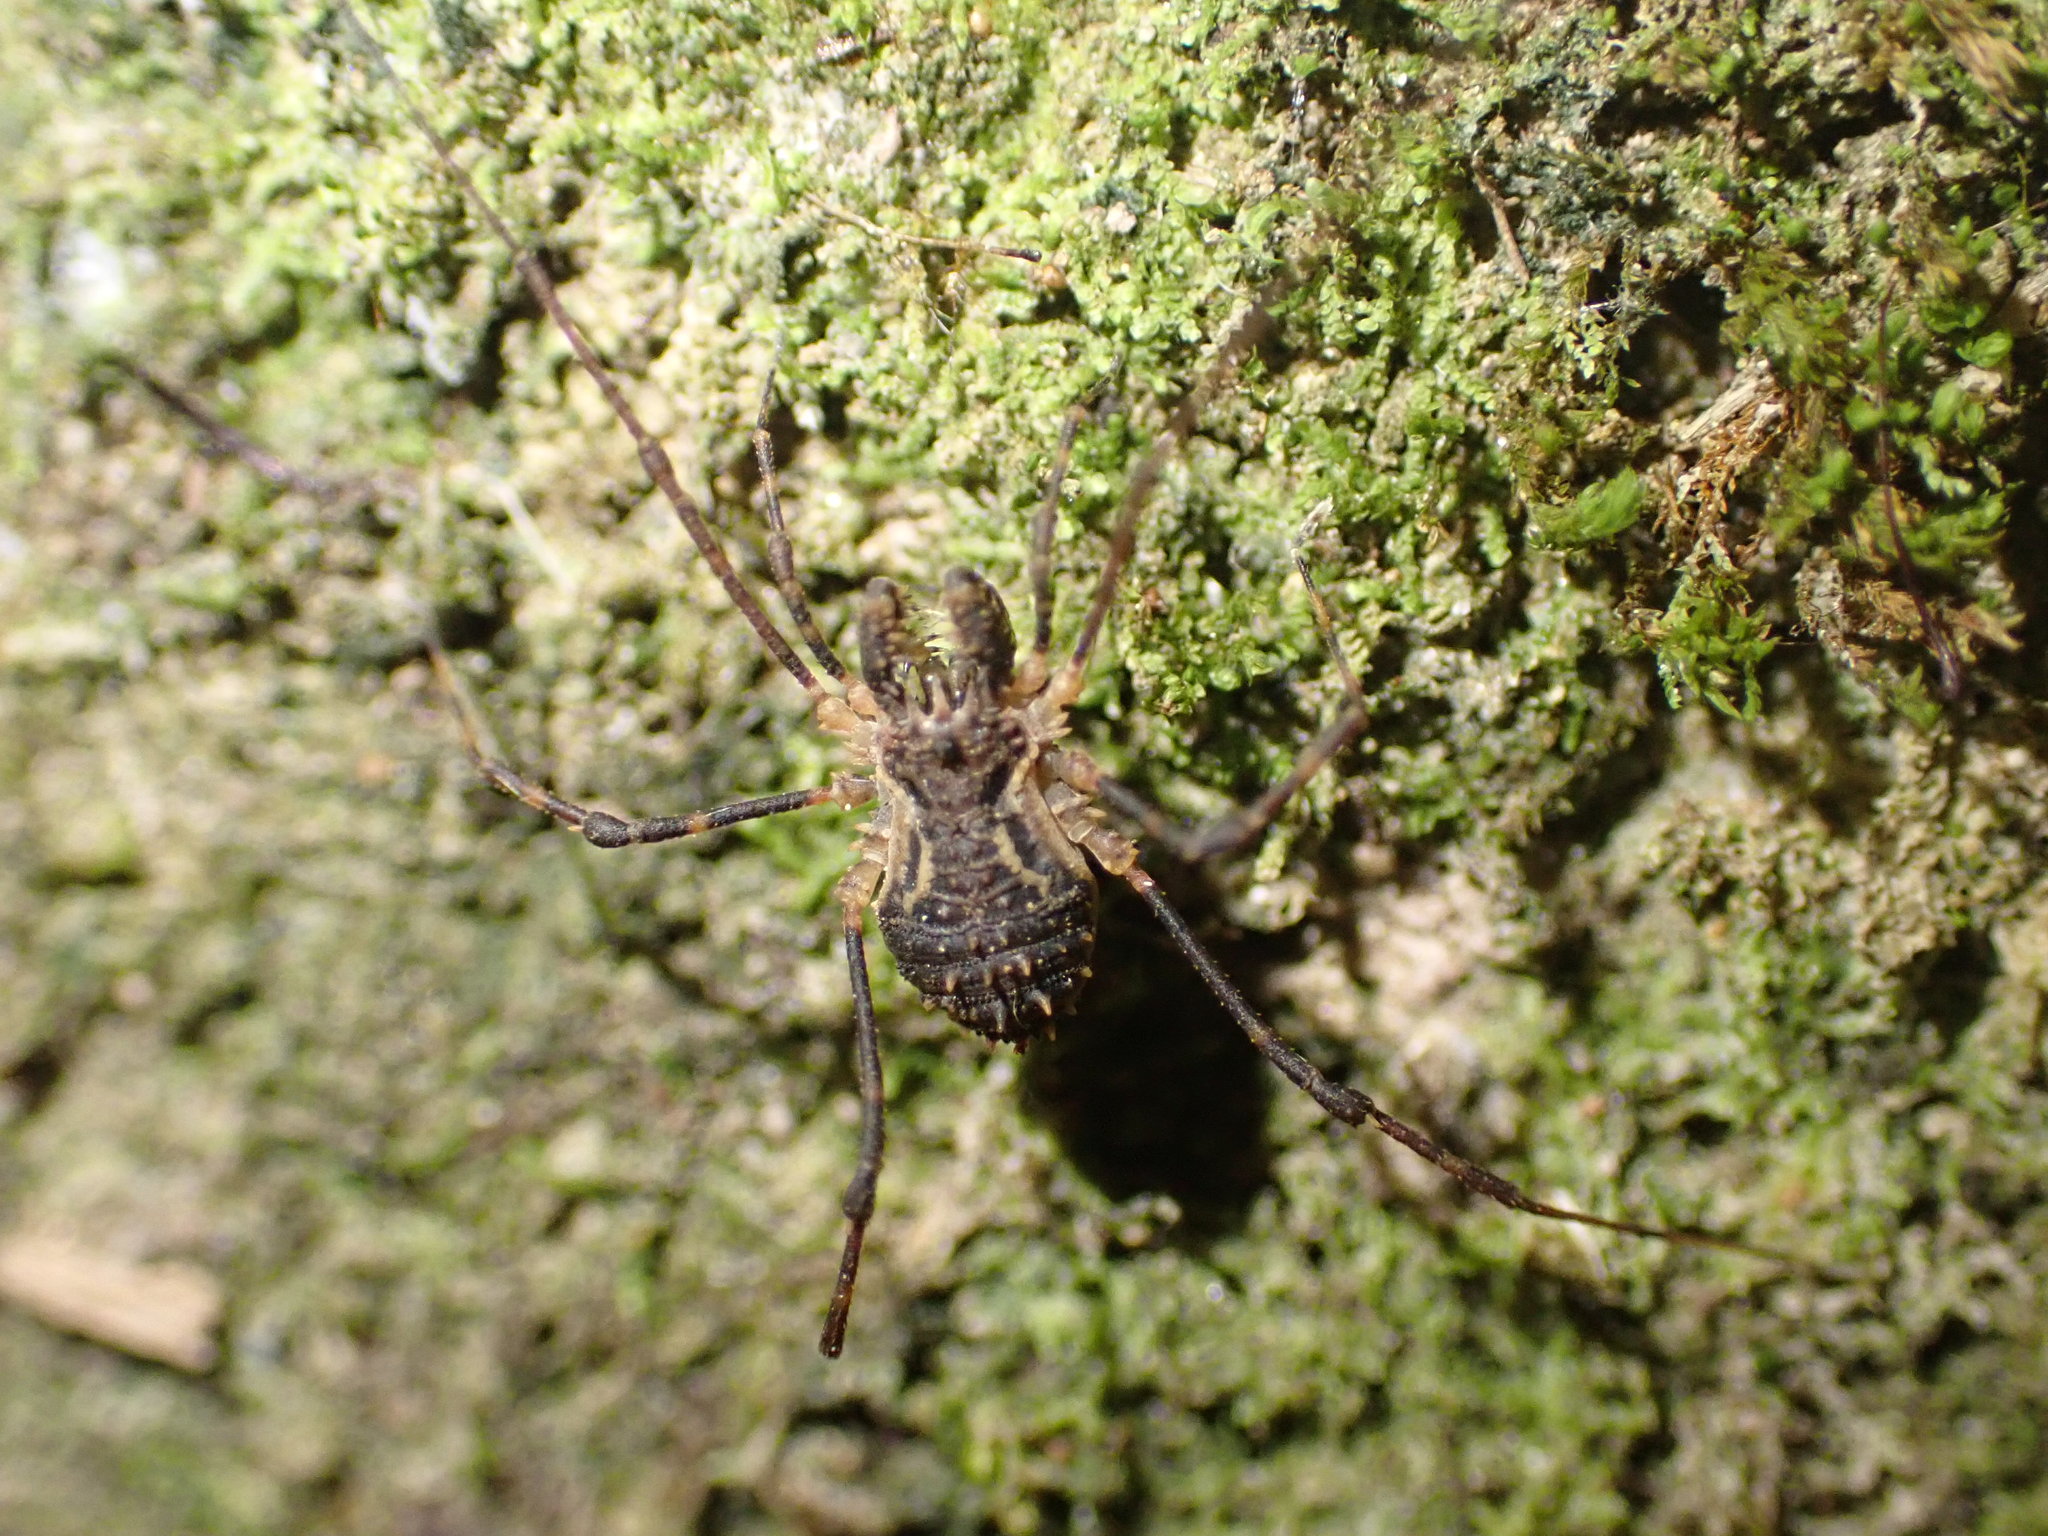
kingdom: Animalia
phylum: Arthropoda
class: Arachnida
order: Opiliones
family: Triaenonychidae
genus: Algidia
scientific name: Algidia chiltoni
